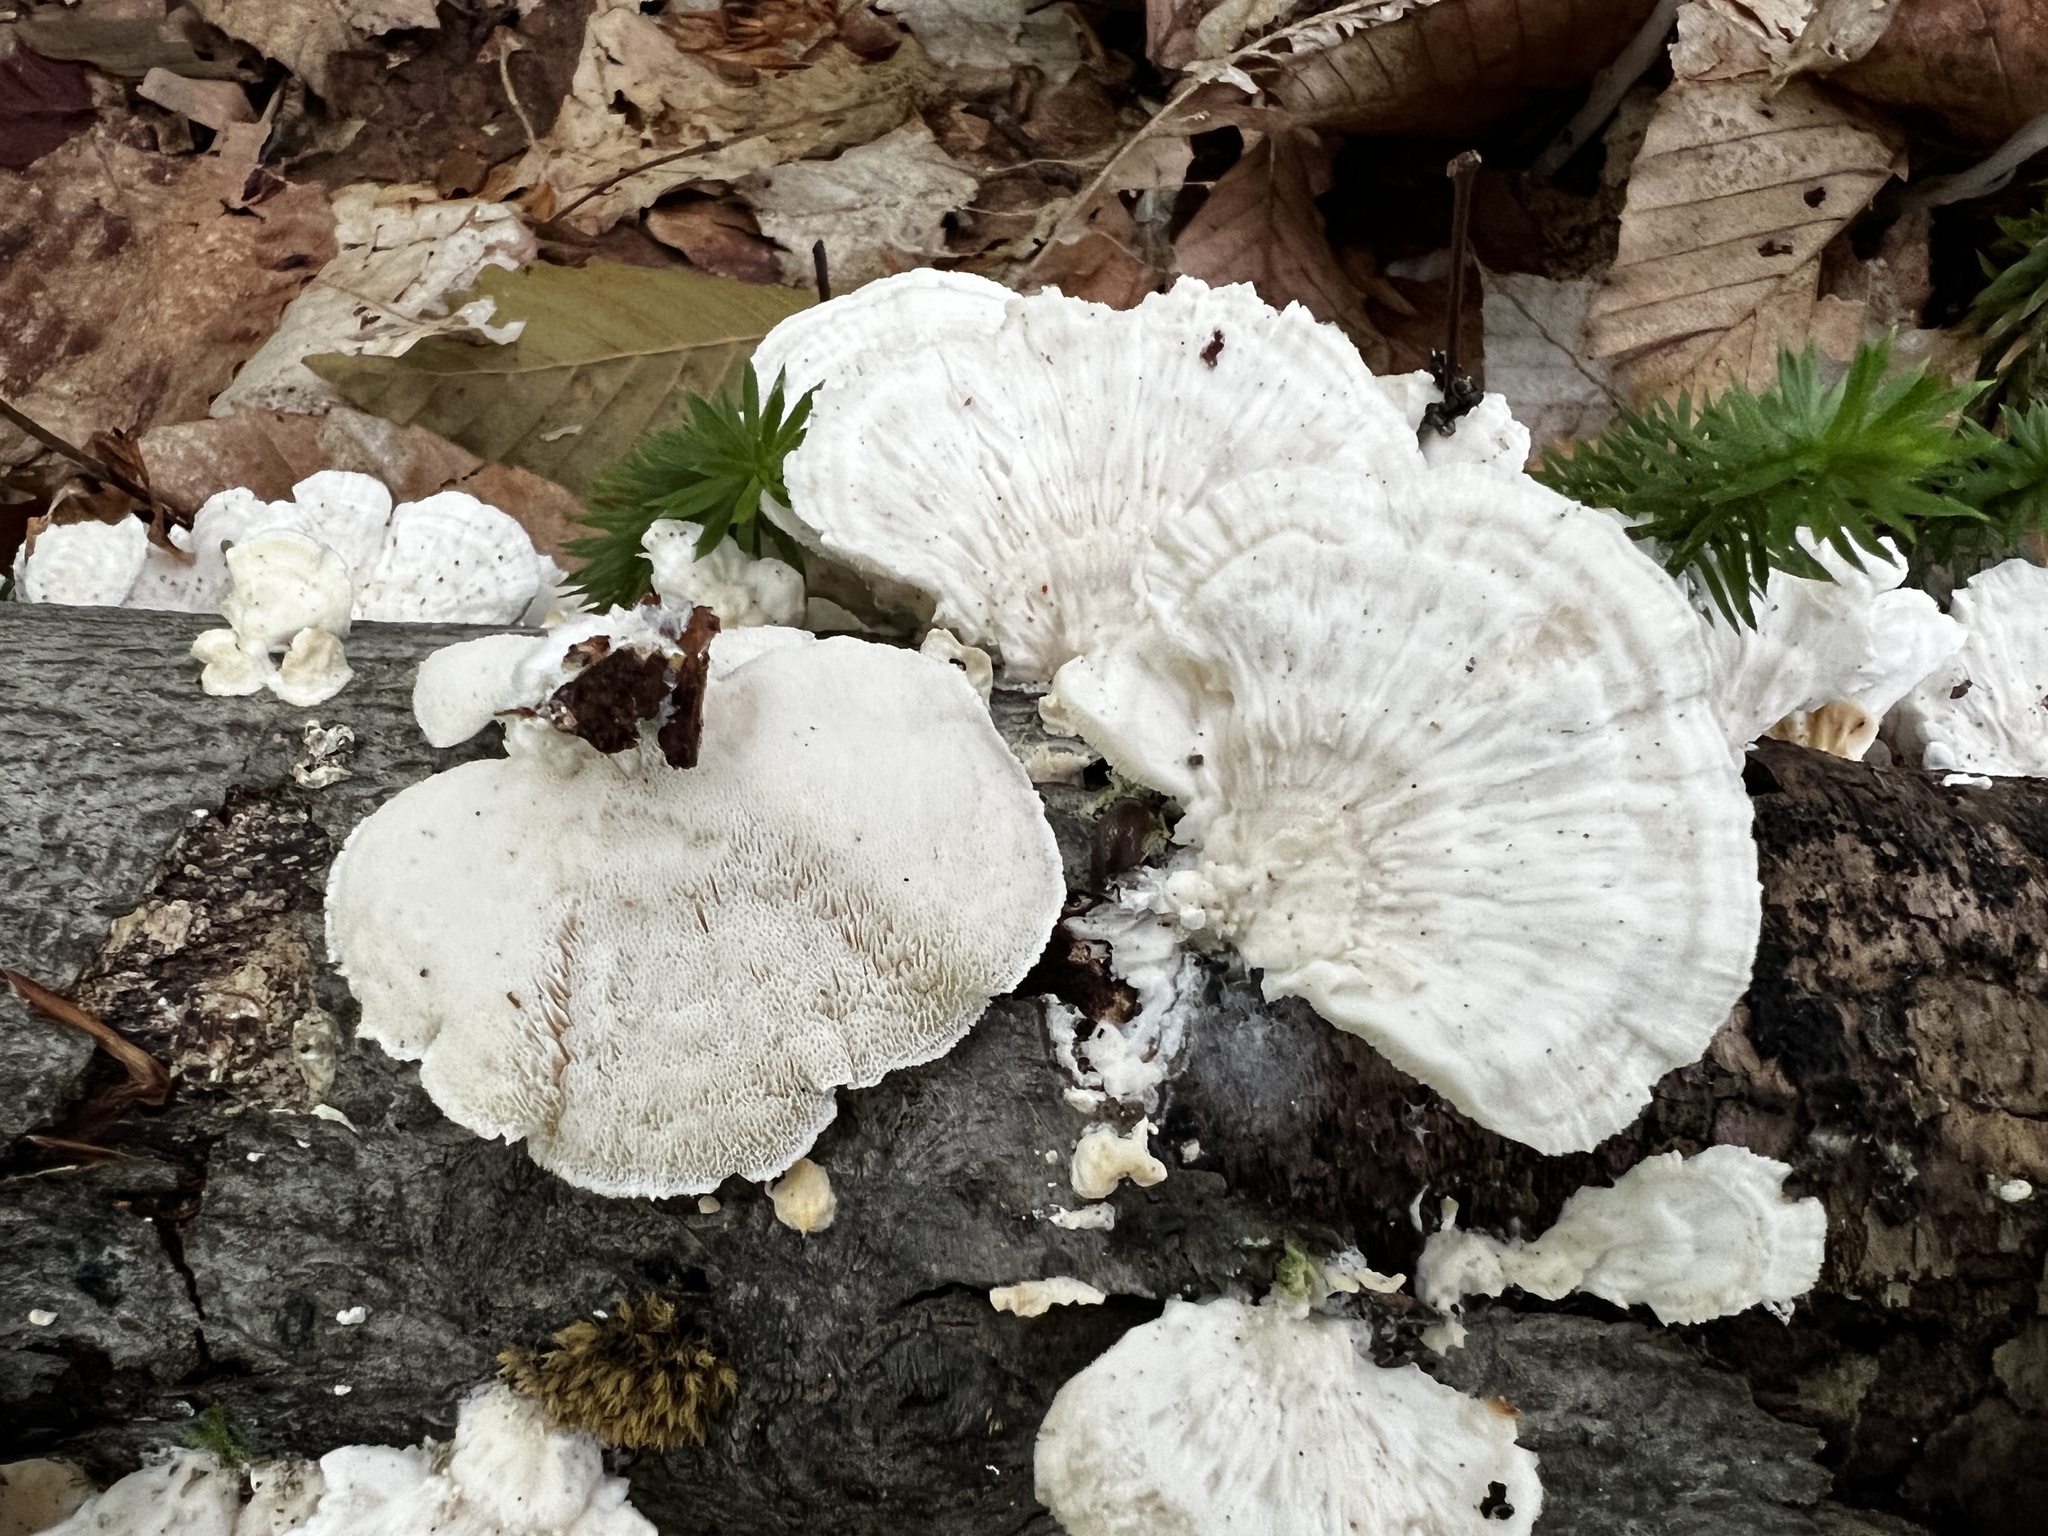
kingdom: Fungi
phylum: Basidiomycota
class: Agaricomycetes
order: Polyporales
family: Polyporaceae
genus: Trametes
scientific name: Trametes pubescens
